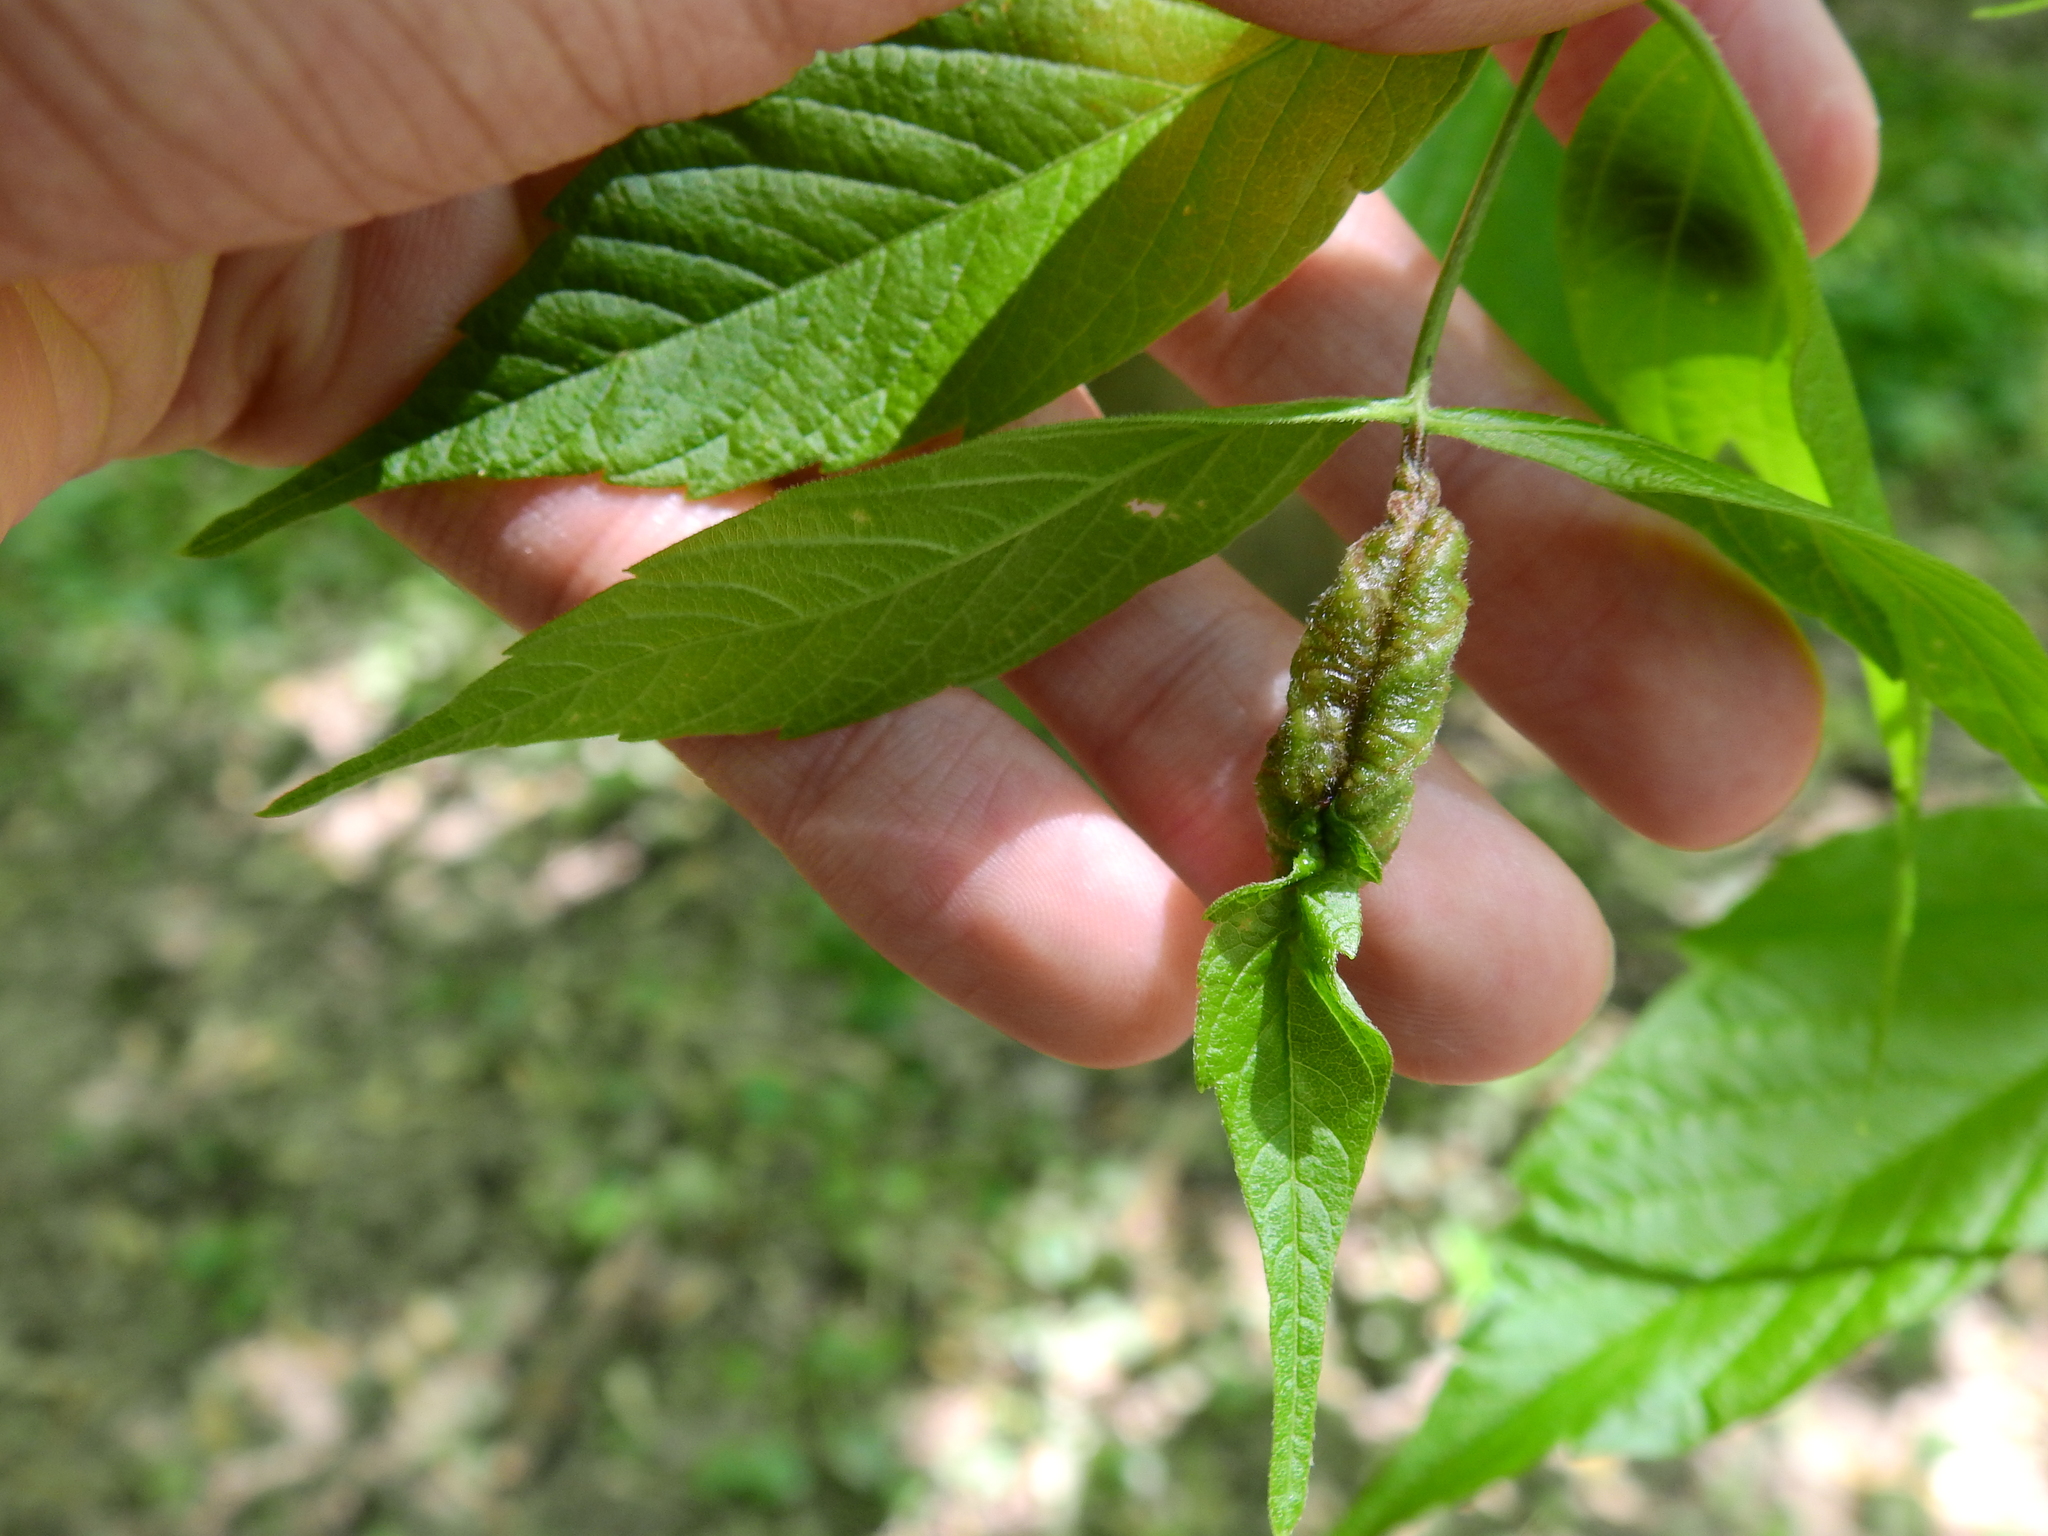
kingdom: Animalia
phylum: Arthropoda
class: Insecta
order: Diptera
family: Cecidomyiidae
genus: Contarinia
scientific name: Contarinia negundinis
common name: Boxelder budgall midge
